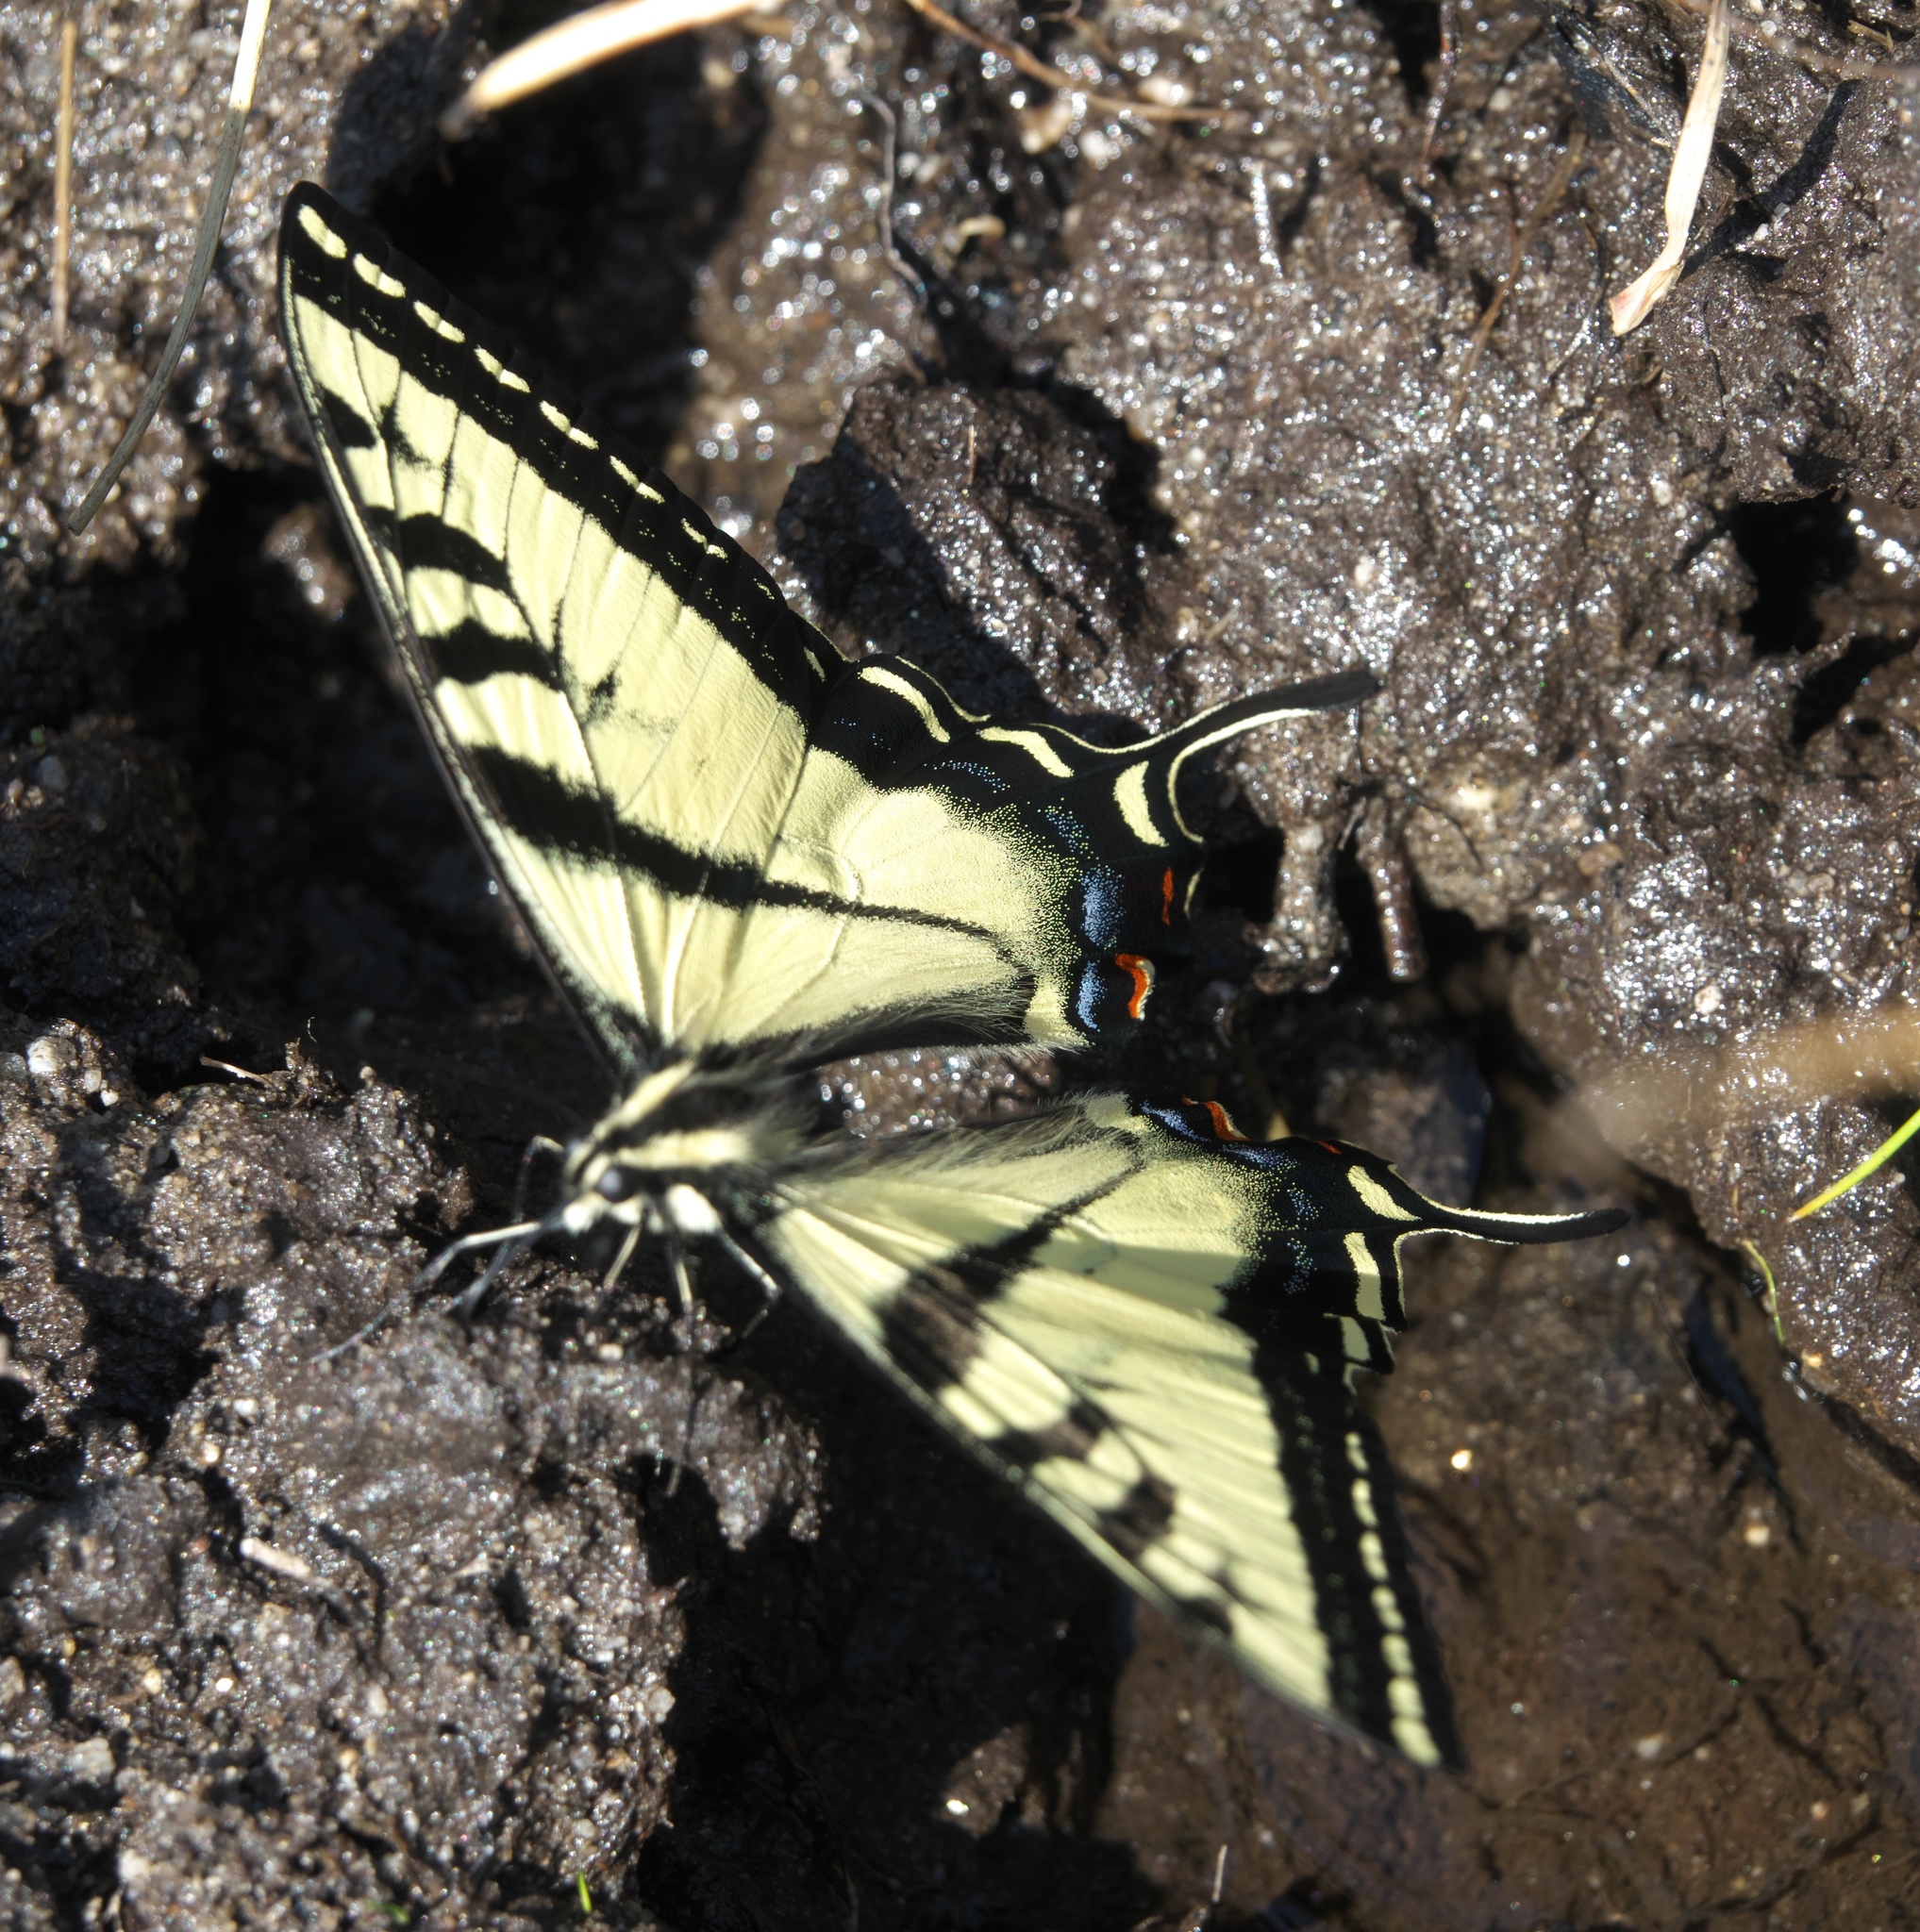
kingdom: Animalia
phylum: Arthropoda
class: Insecta
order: Lepidoptera
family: Papilionidae
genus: Papilio
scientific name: Papilio rutulus
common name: Western tiger swallowtail
